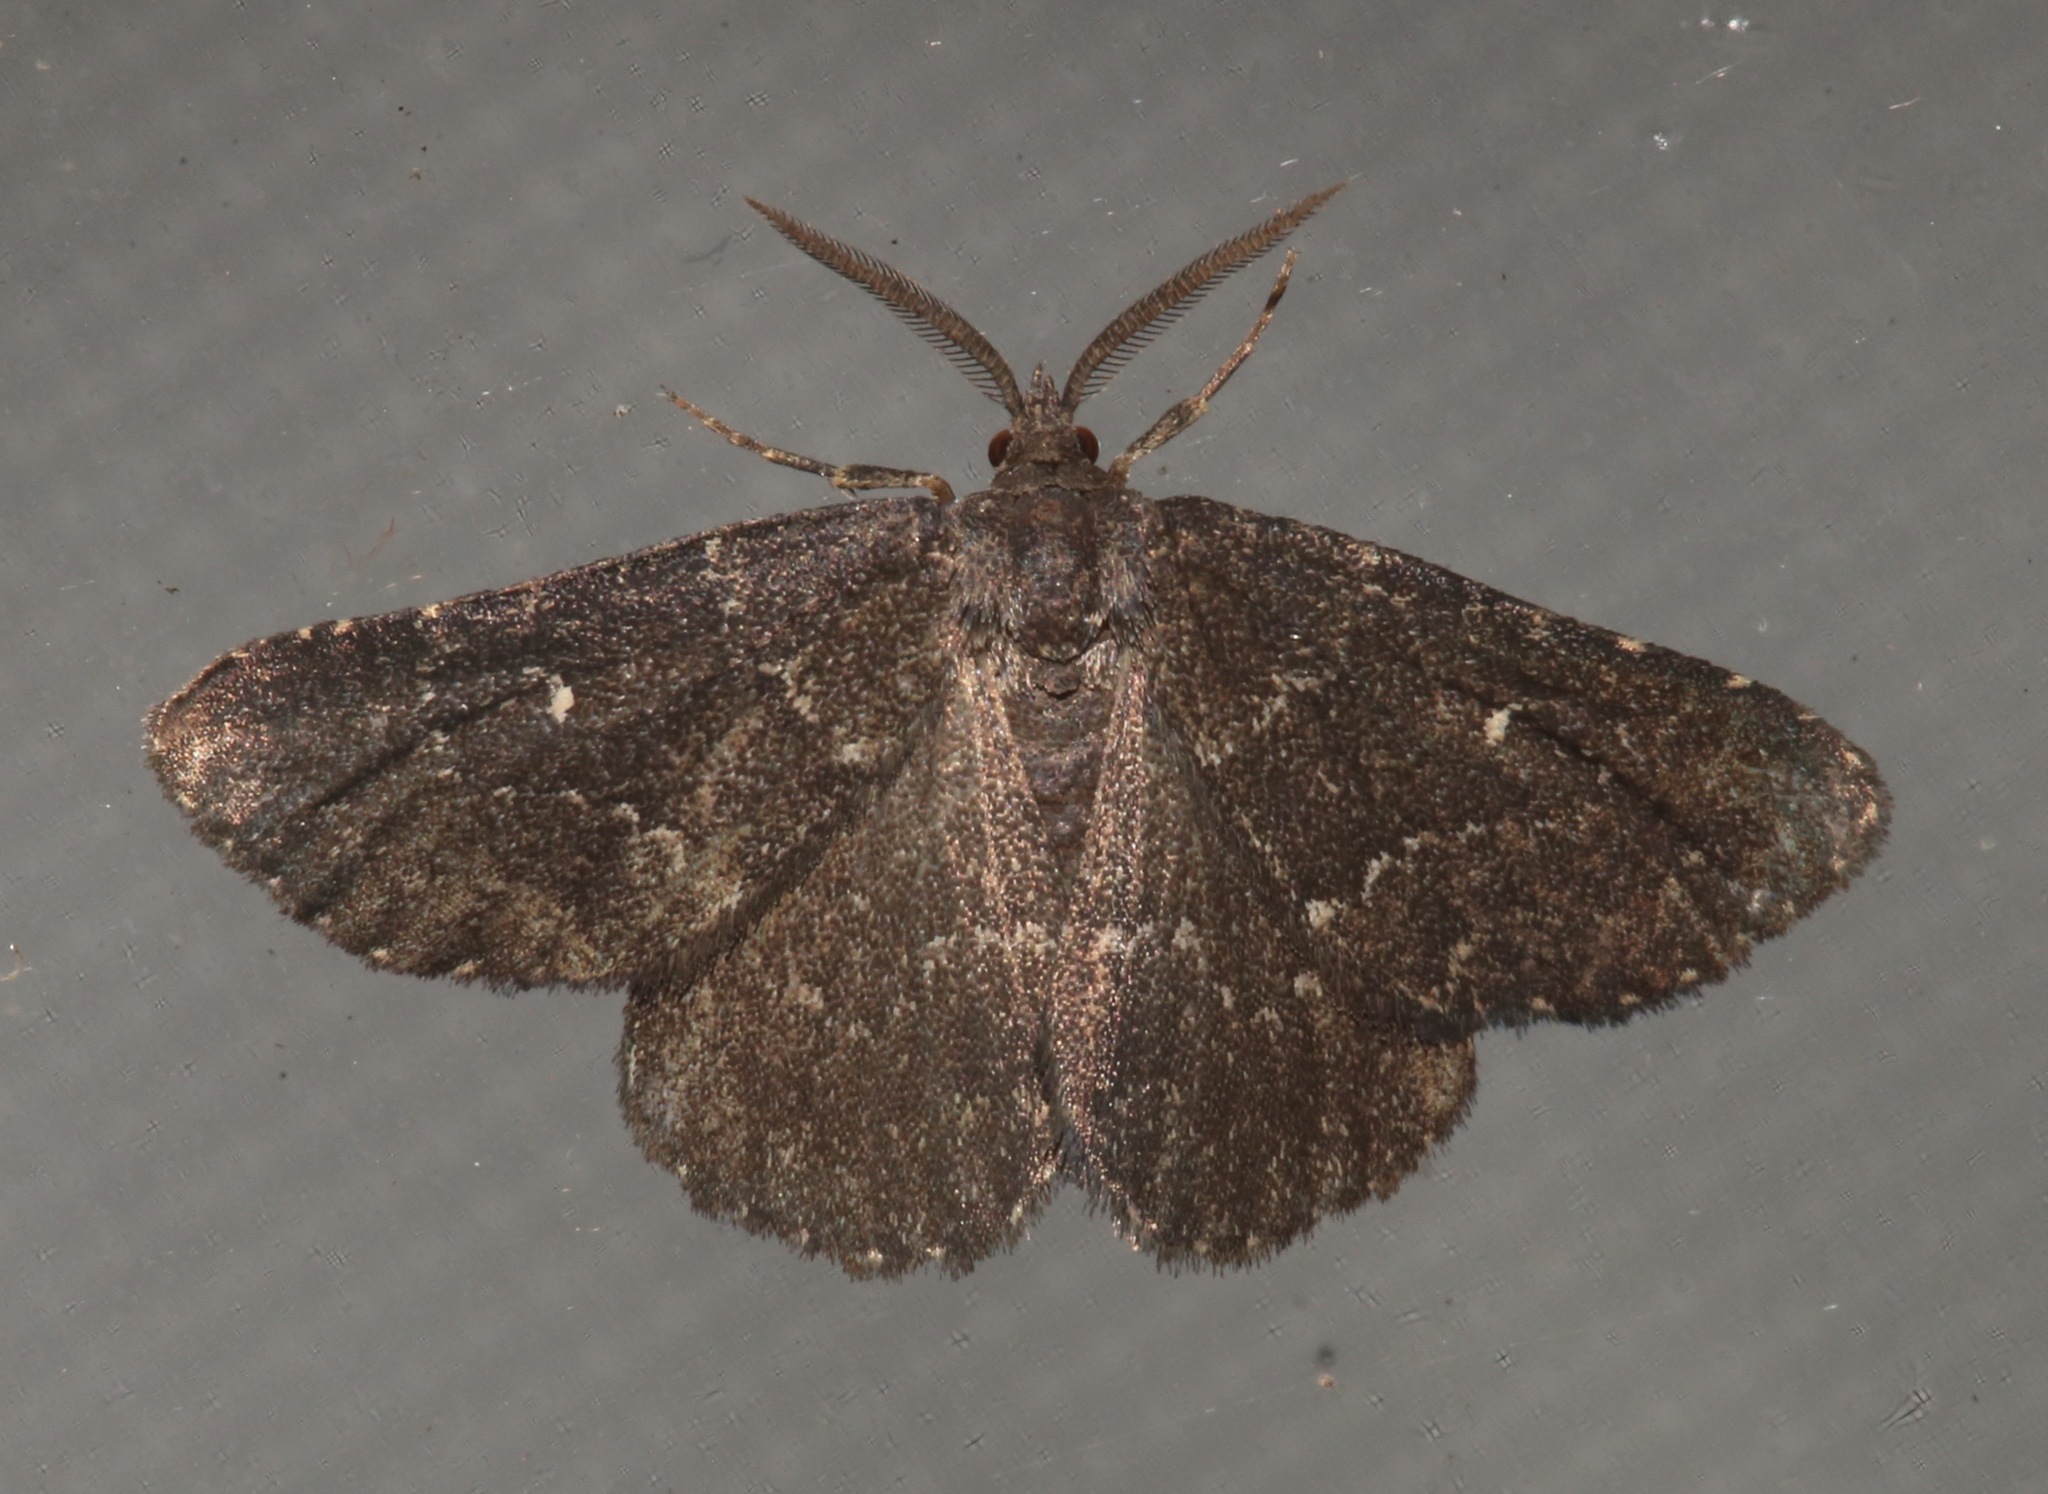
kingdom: Animalia
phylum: Arthropoda
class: Insecta
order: Lepidoptera
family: Erebidae
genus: Prosoparia
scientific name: Prosoparia floridana
